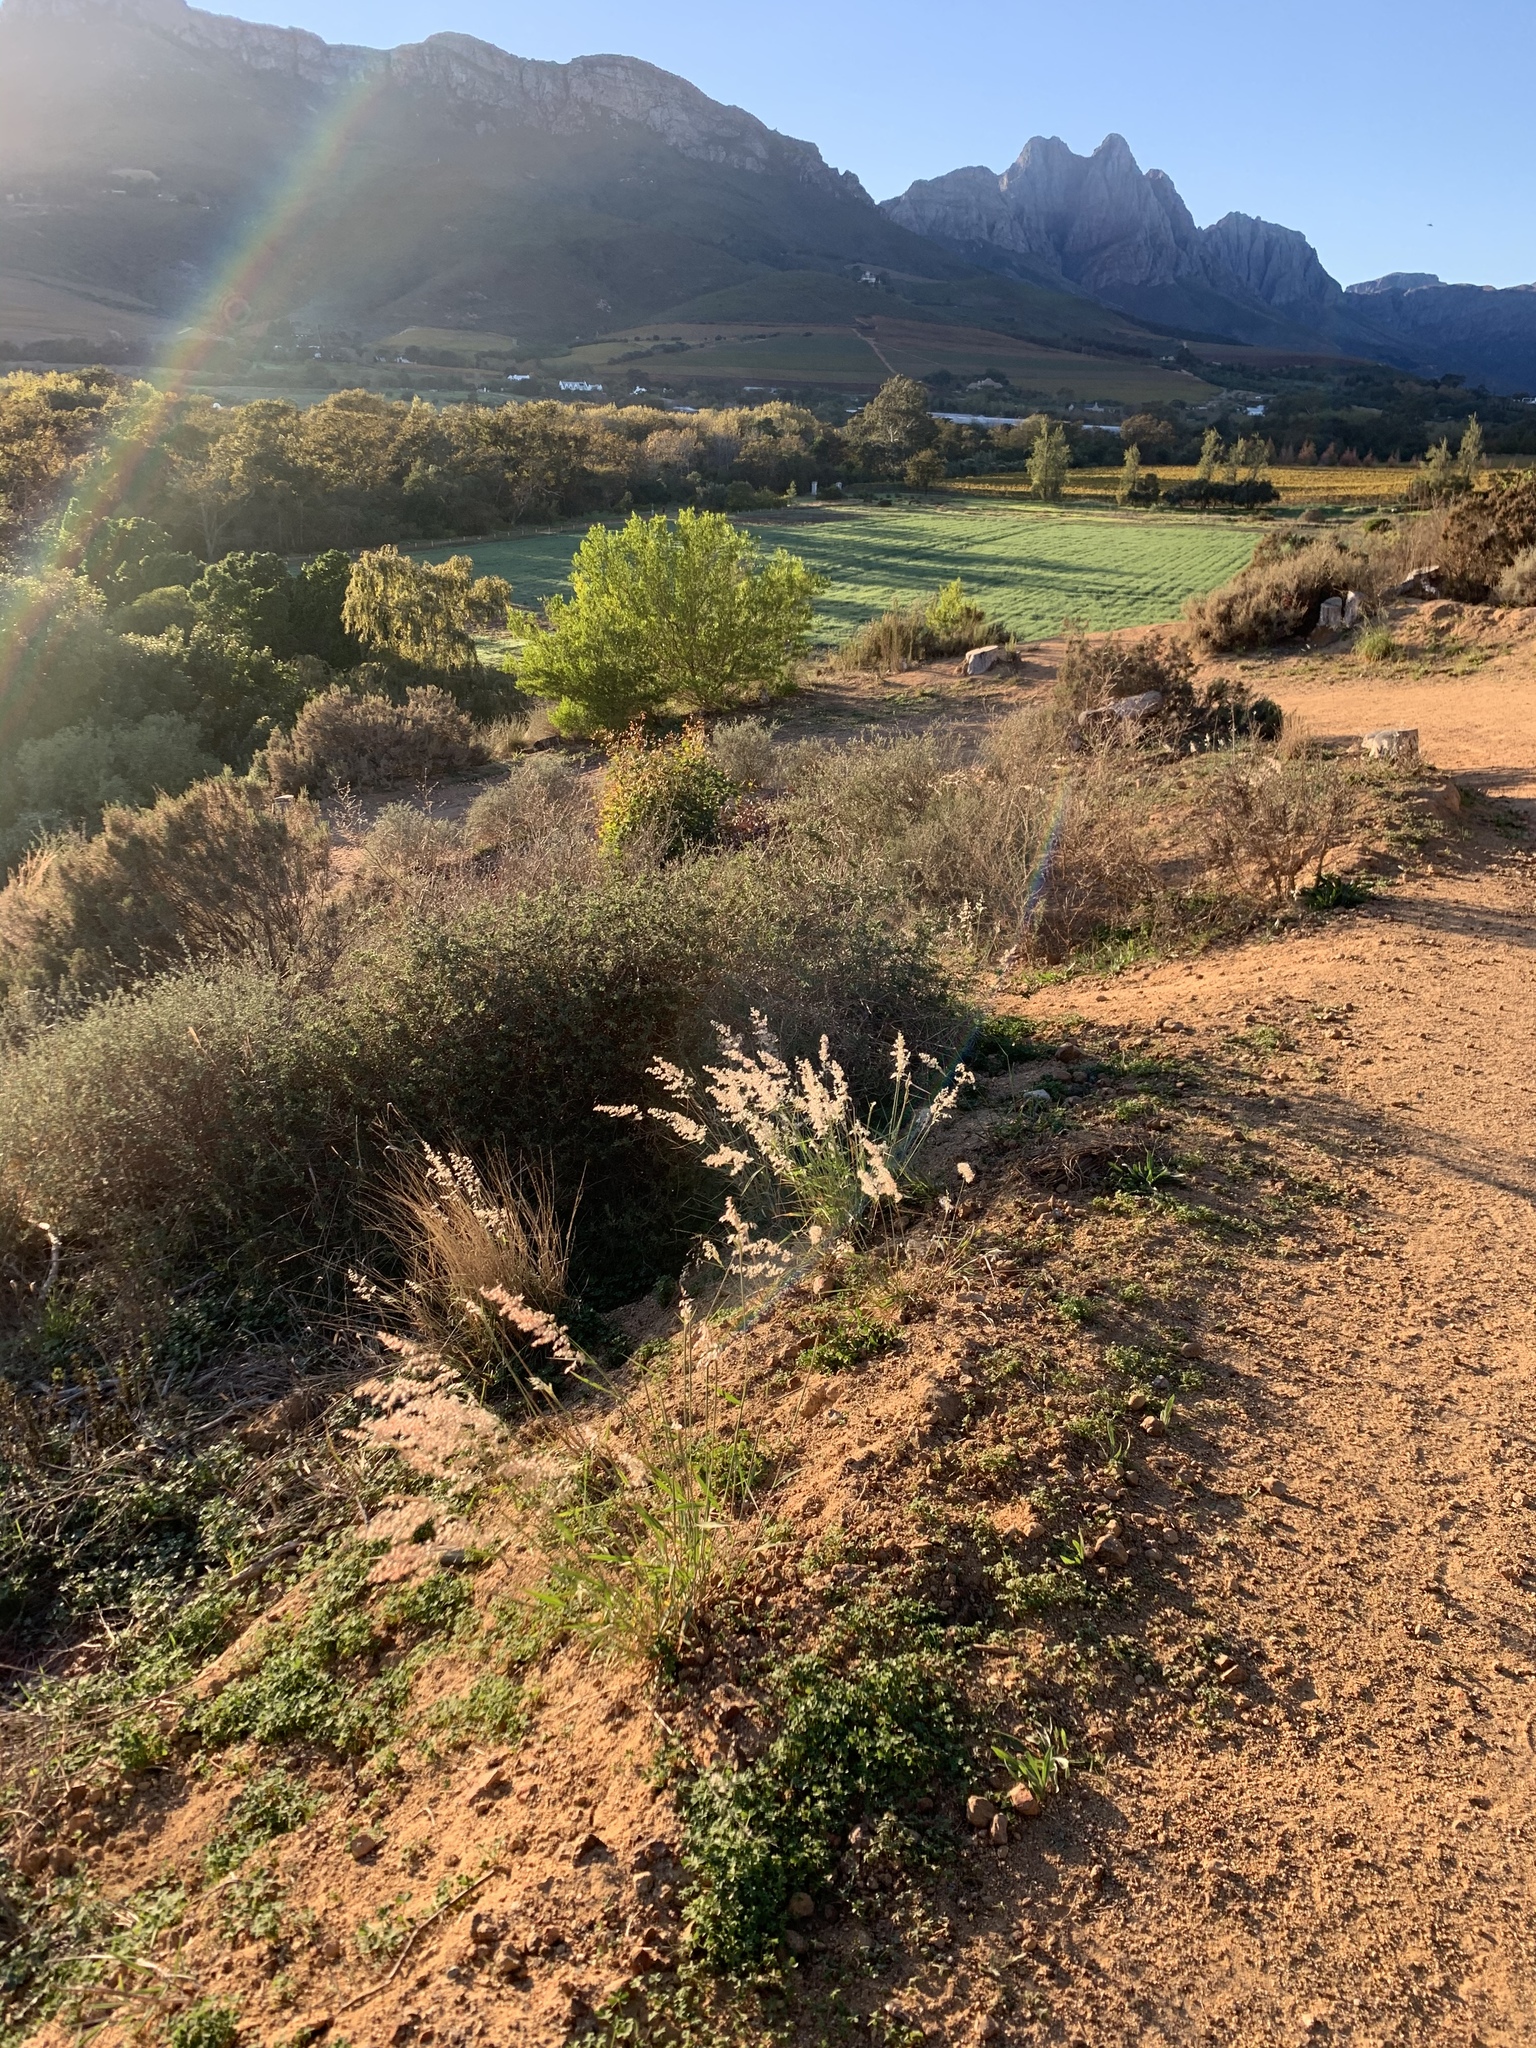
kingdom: Plantae
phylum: Tracheophyta
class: Liliopsida
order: Poales
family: Poaceae
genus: Melinis
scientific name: Melinis repens
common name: Rose natal grass
